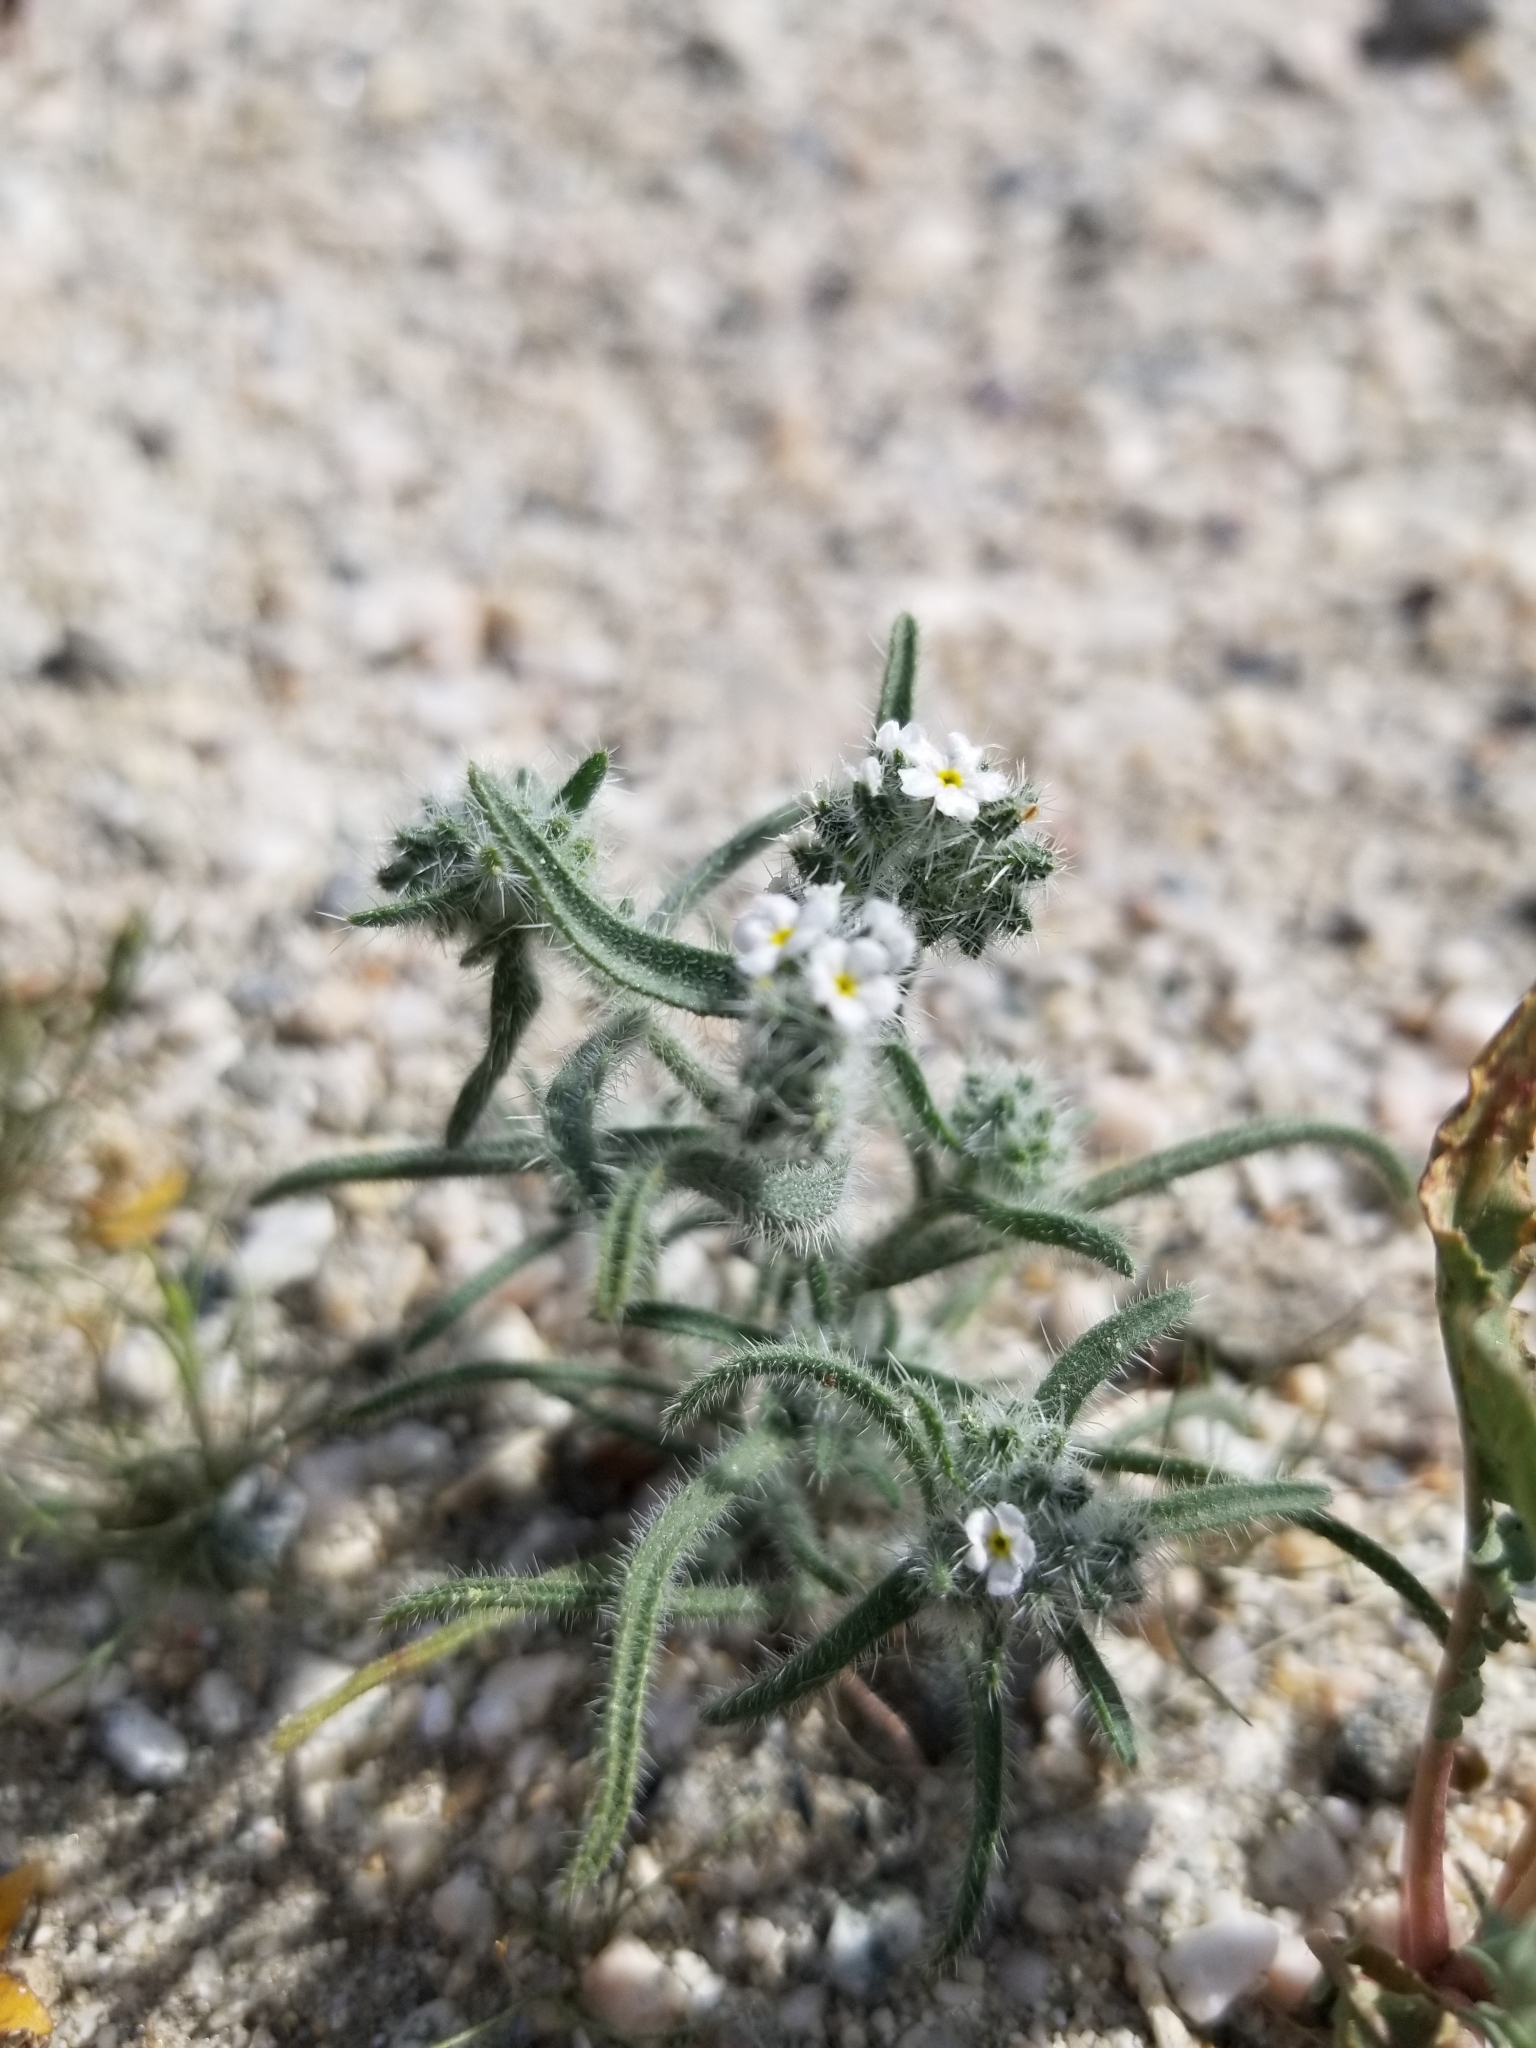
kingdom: Plantae
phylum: Tracheophyta
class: Magnoliopsida
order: Boraginales
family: Boraginaceae
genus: Johnstonella
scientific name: Johnstonella angustifolia
